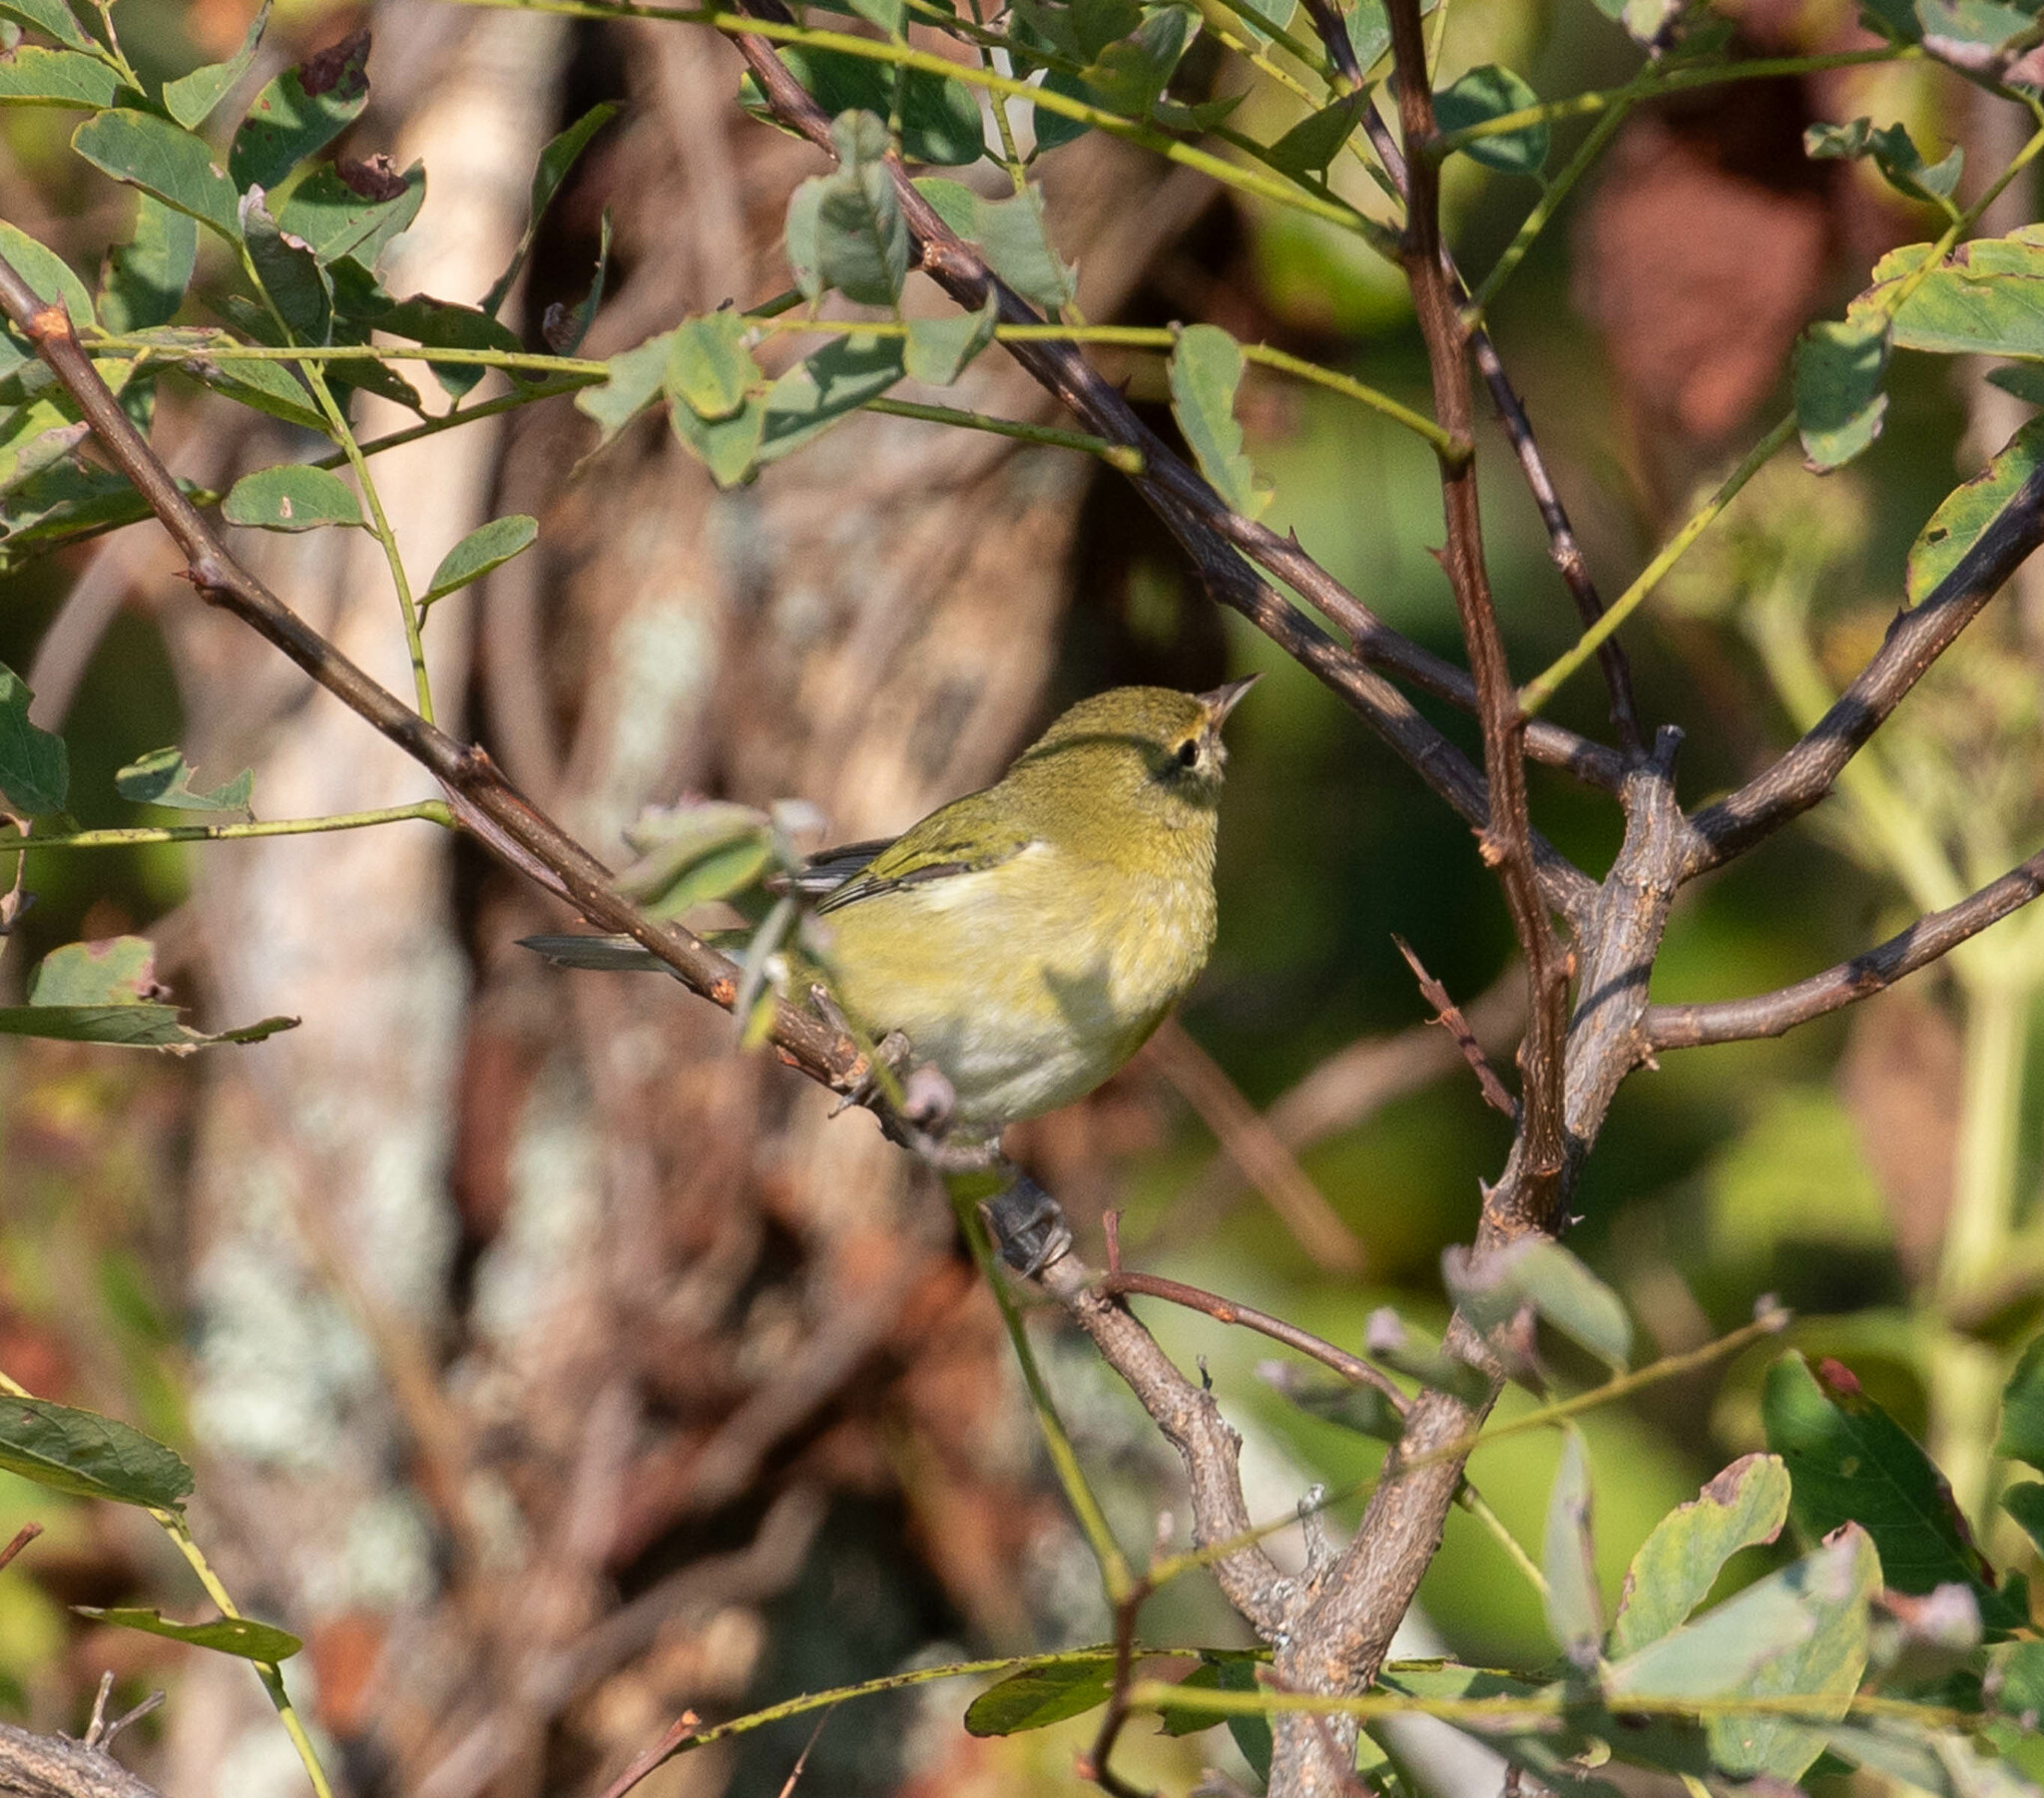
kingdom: Animalia
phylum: Chordata
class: Aves
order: Passeriformes
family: Parulidae
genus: Leiothlypis
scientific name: Leiothlypis peregrina
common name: Tennessee warbler
